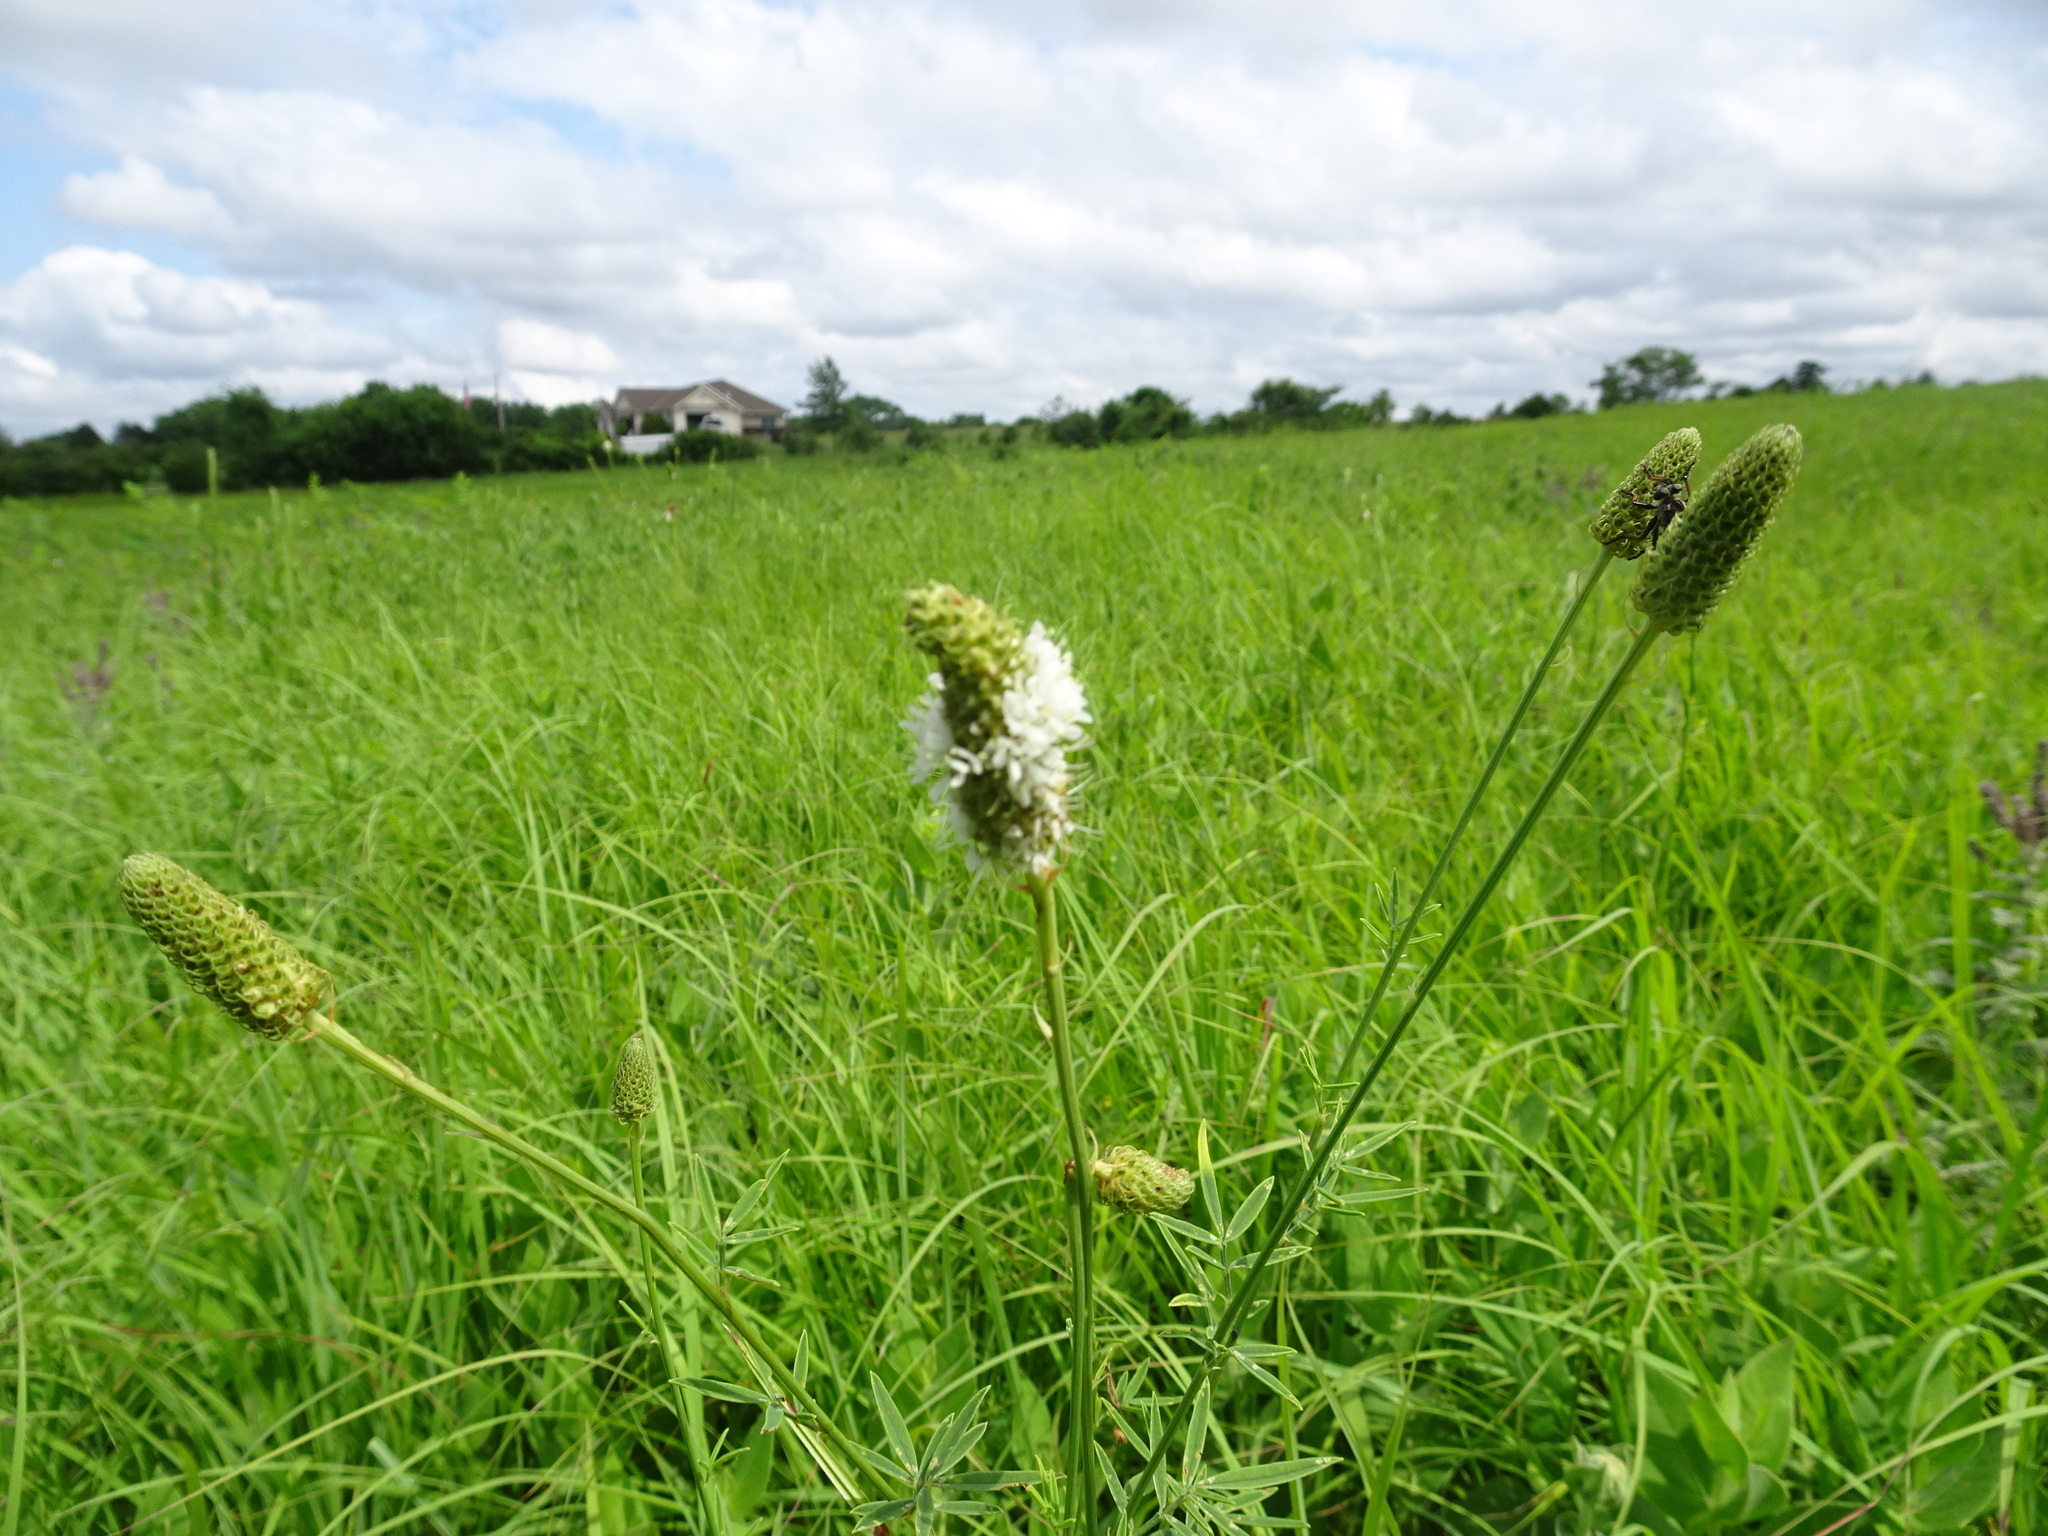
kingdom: Plantae
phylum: Tracheophyta
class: Magnoliopsida
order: Fabales
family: Fabaceae
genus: Dalea
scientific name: Dalea candida
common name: White prairie-clover
